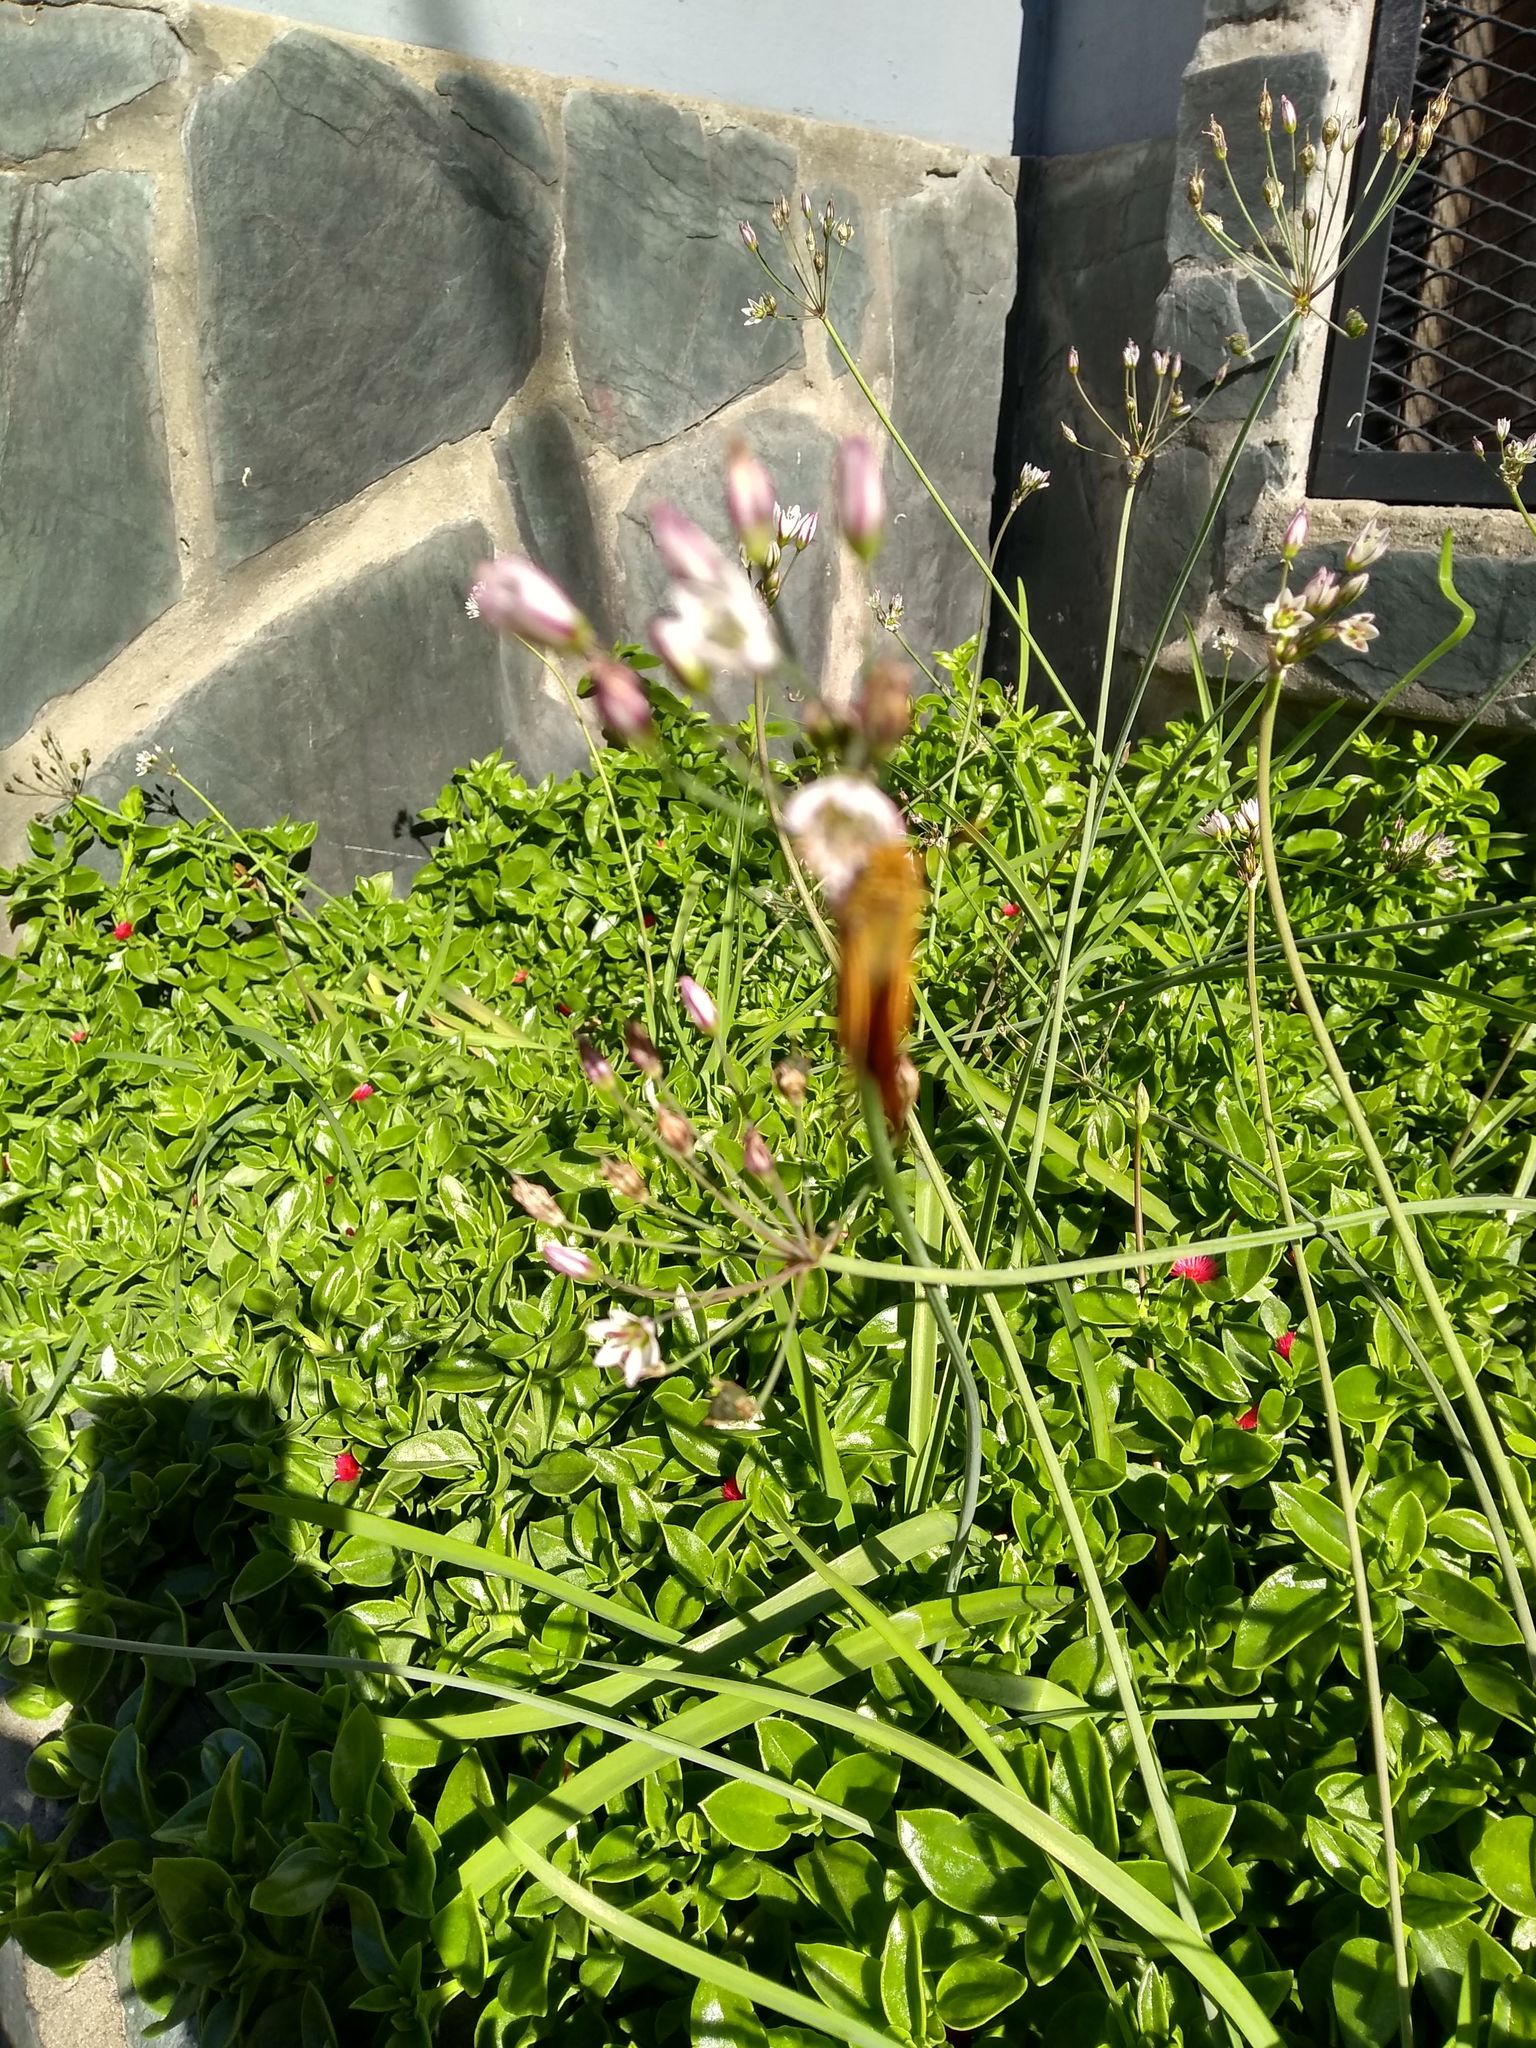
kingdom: Animalia
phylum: Arthropoda
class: Insecta
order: Lepidoptera
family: Hesperiidae
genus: Hylephila
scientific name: Hylephila phyleus
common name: Fiery skipper
